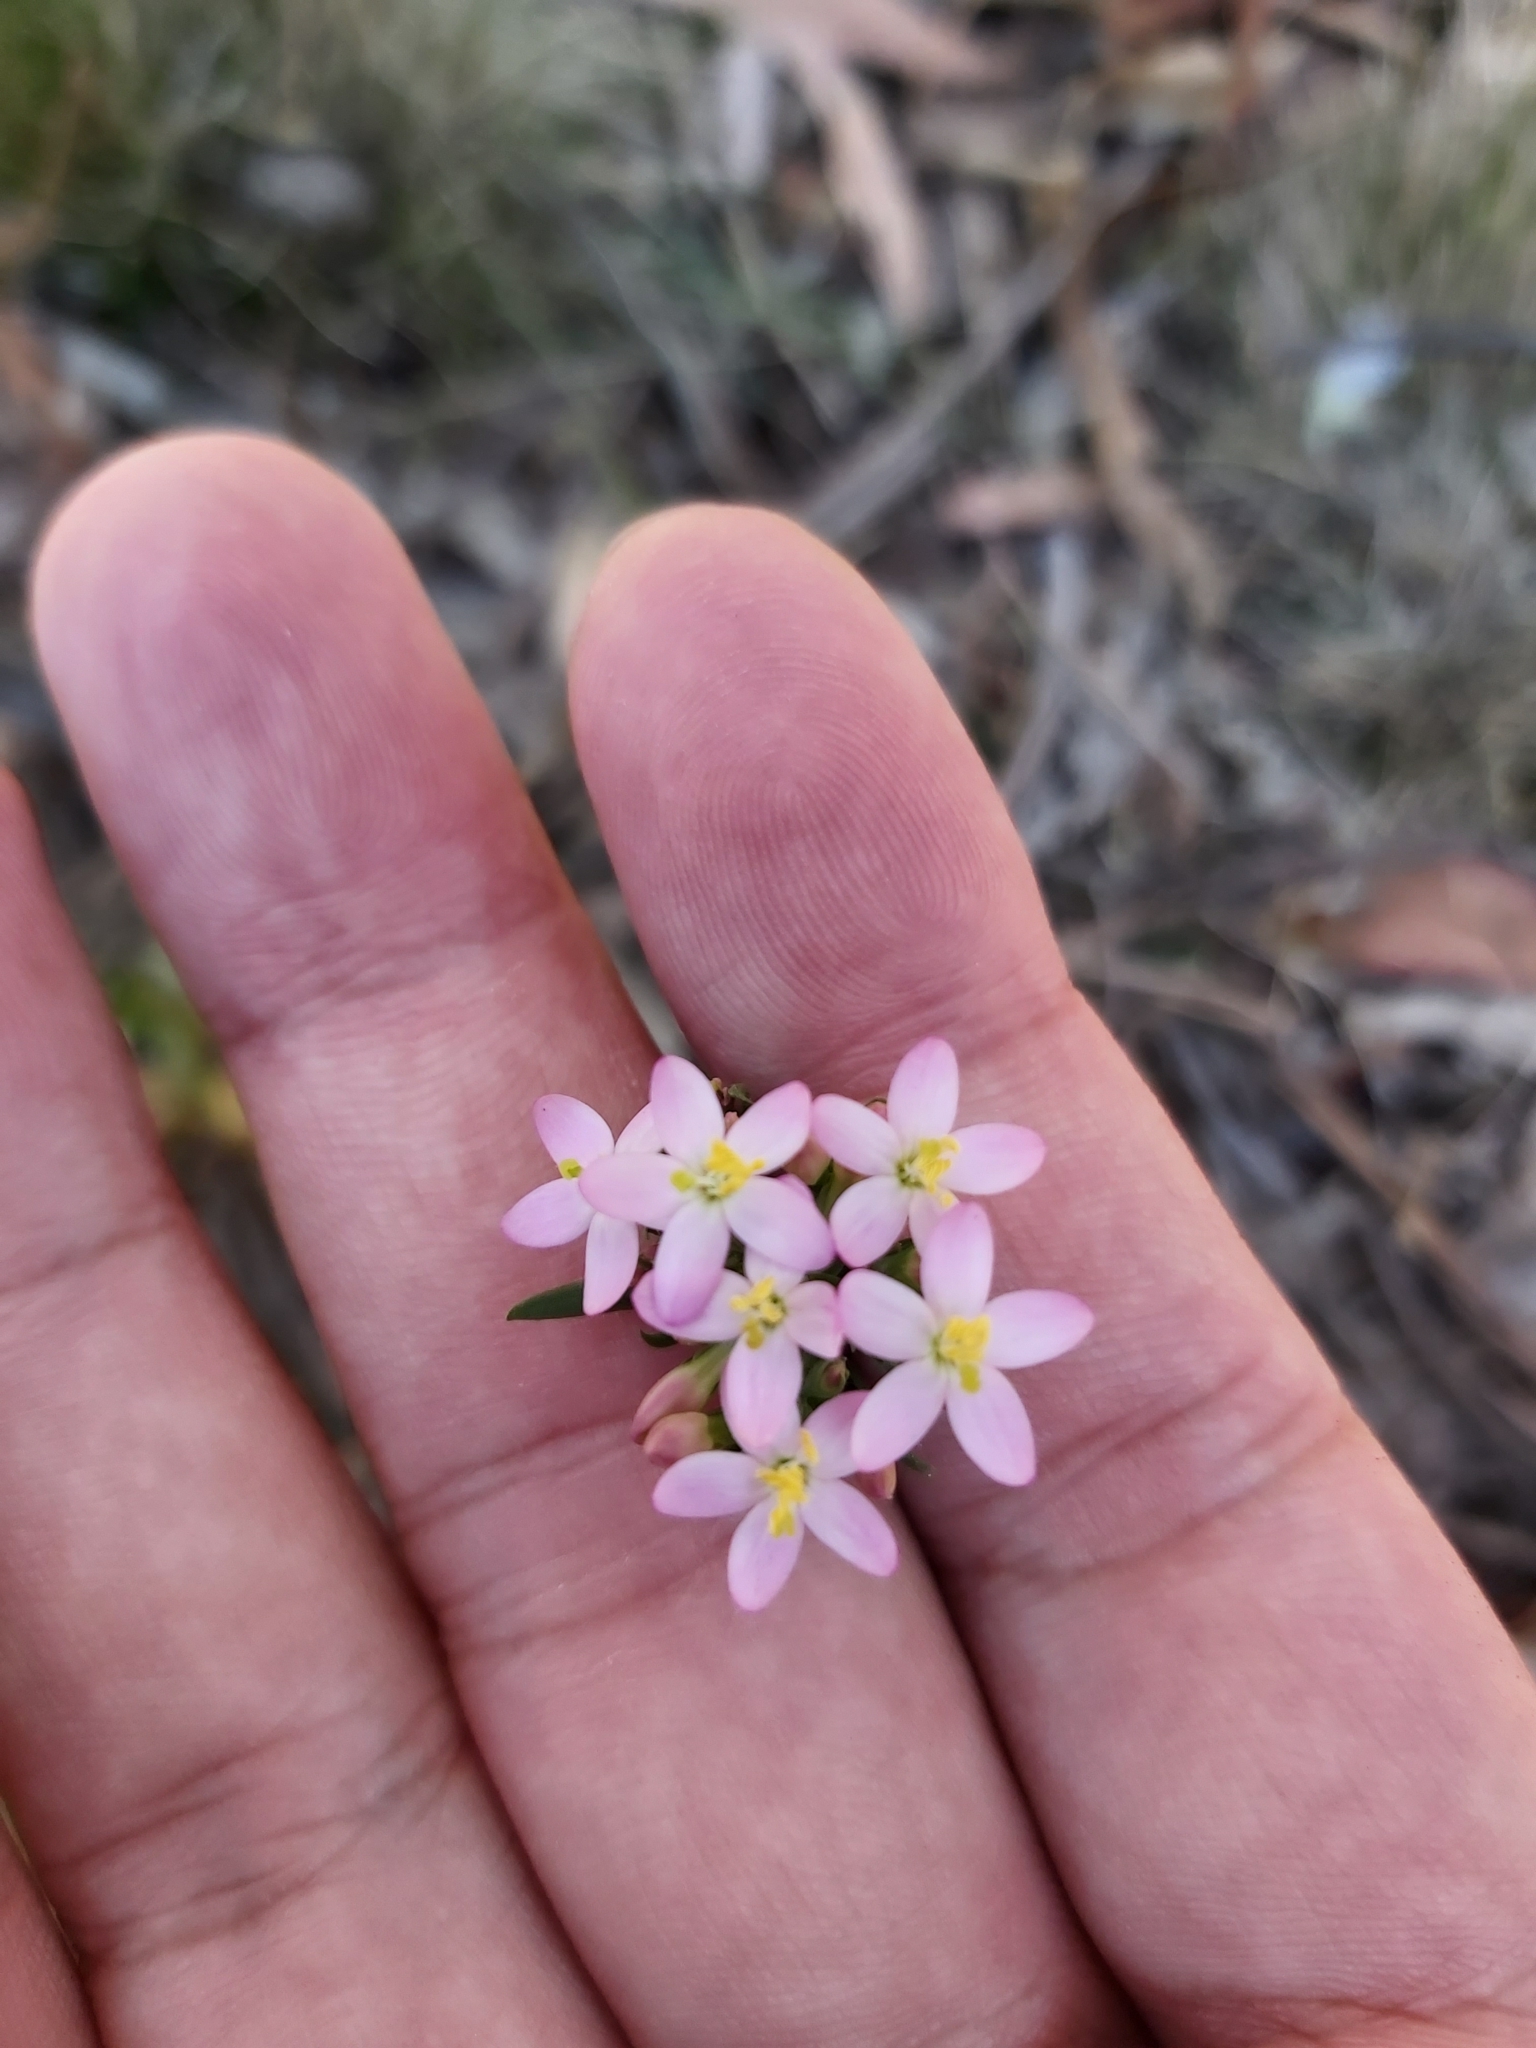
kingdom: Plantae
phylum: Tracheophyta
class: Magnoliopsida
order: Gentianales
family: Gentianaceae
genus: Centaurium
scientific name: Centaurium erythraea
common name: Common centaury
